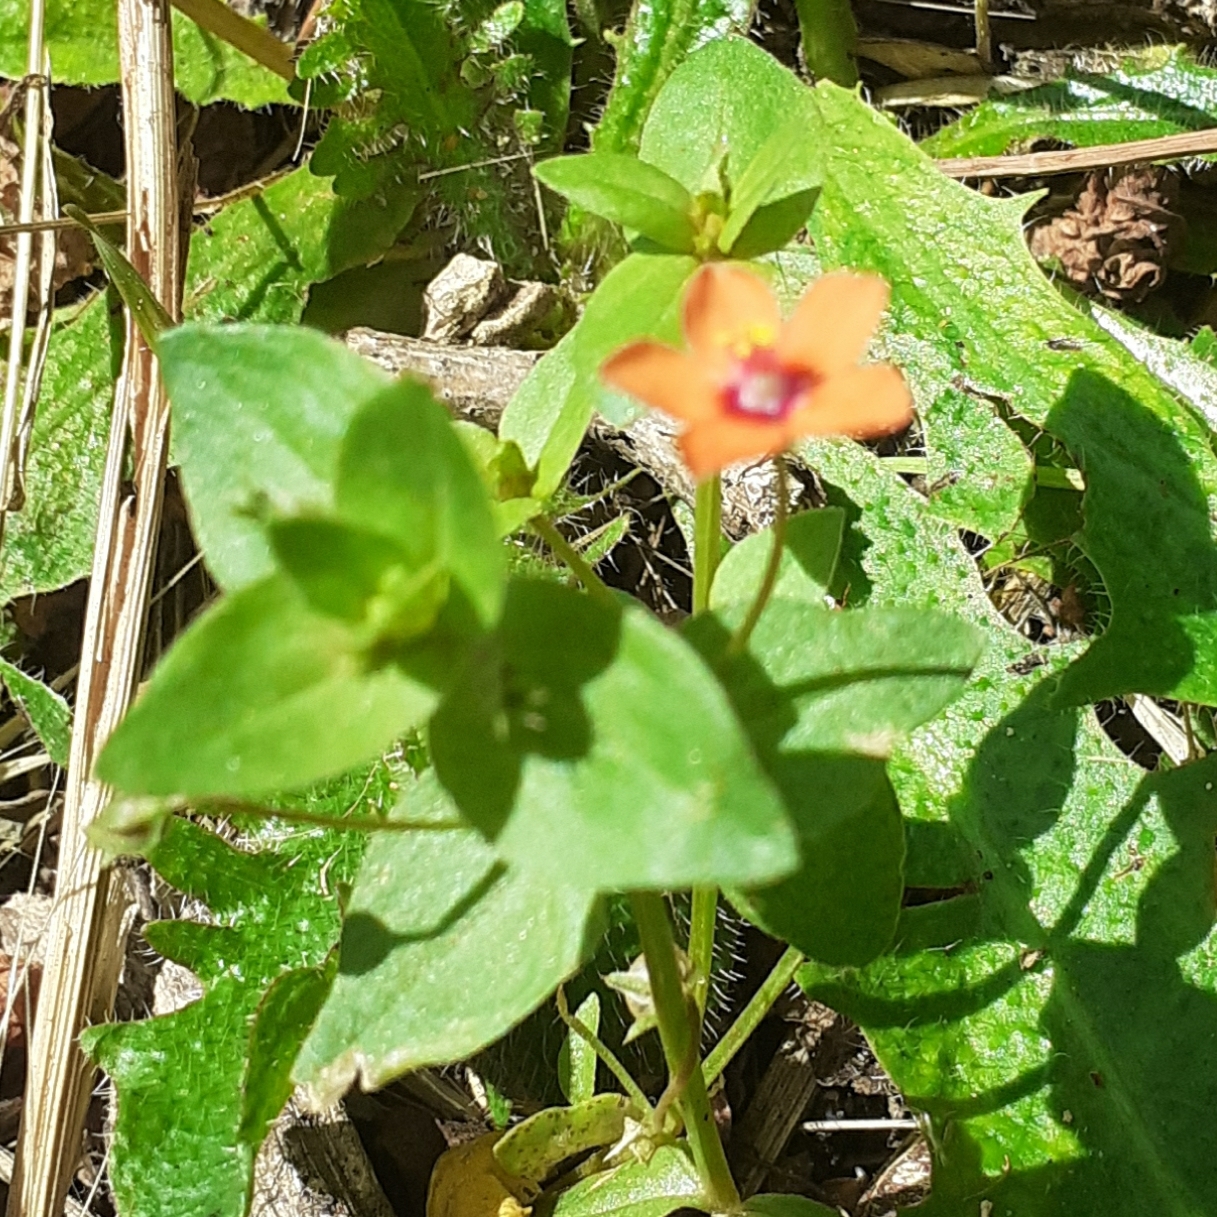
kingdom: Plantae
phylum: Tracheophyta
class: Magnoliopsida
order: Ericales
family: Primulaceae
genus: Lysimachia
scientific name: Lysimachia arvensis
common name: Scarlet pimpernel
